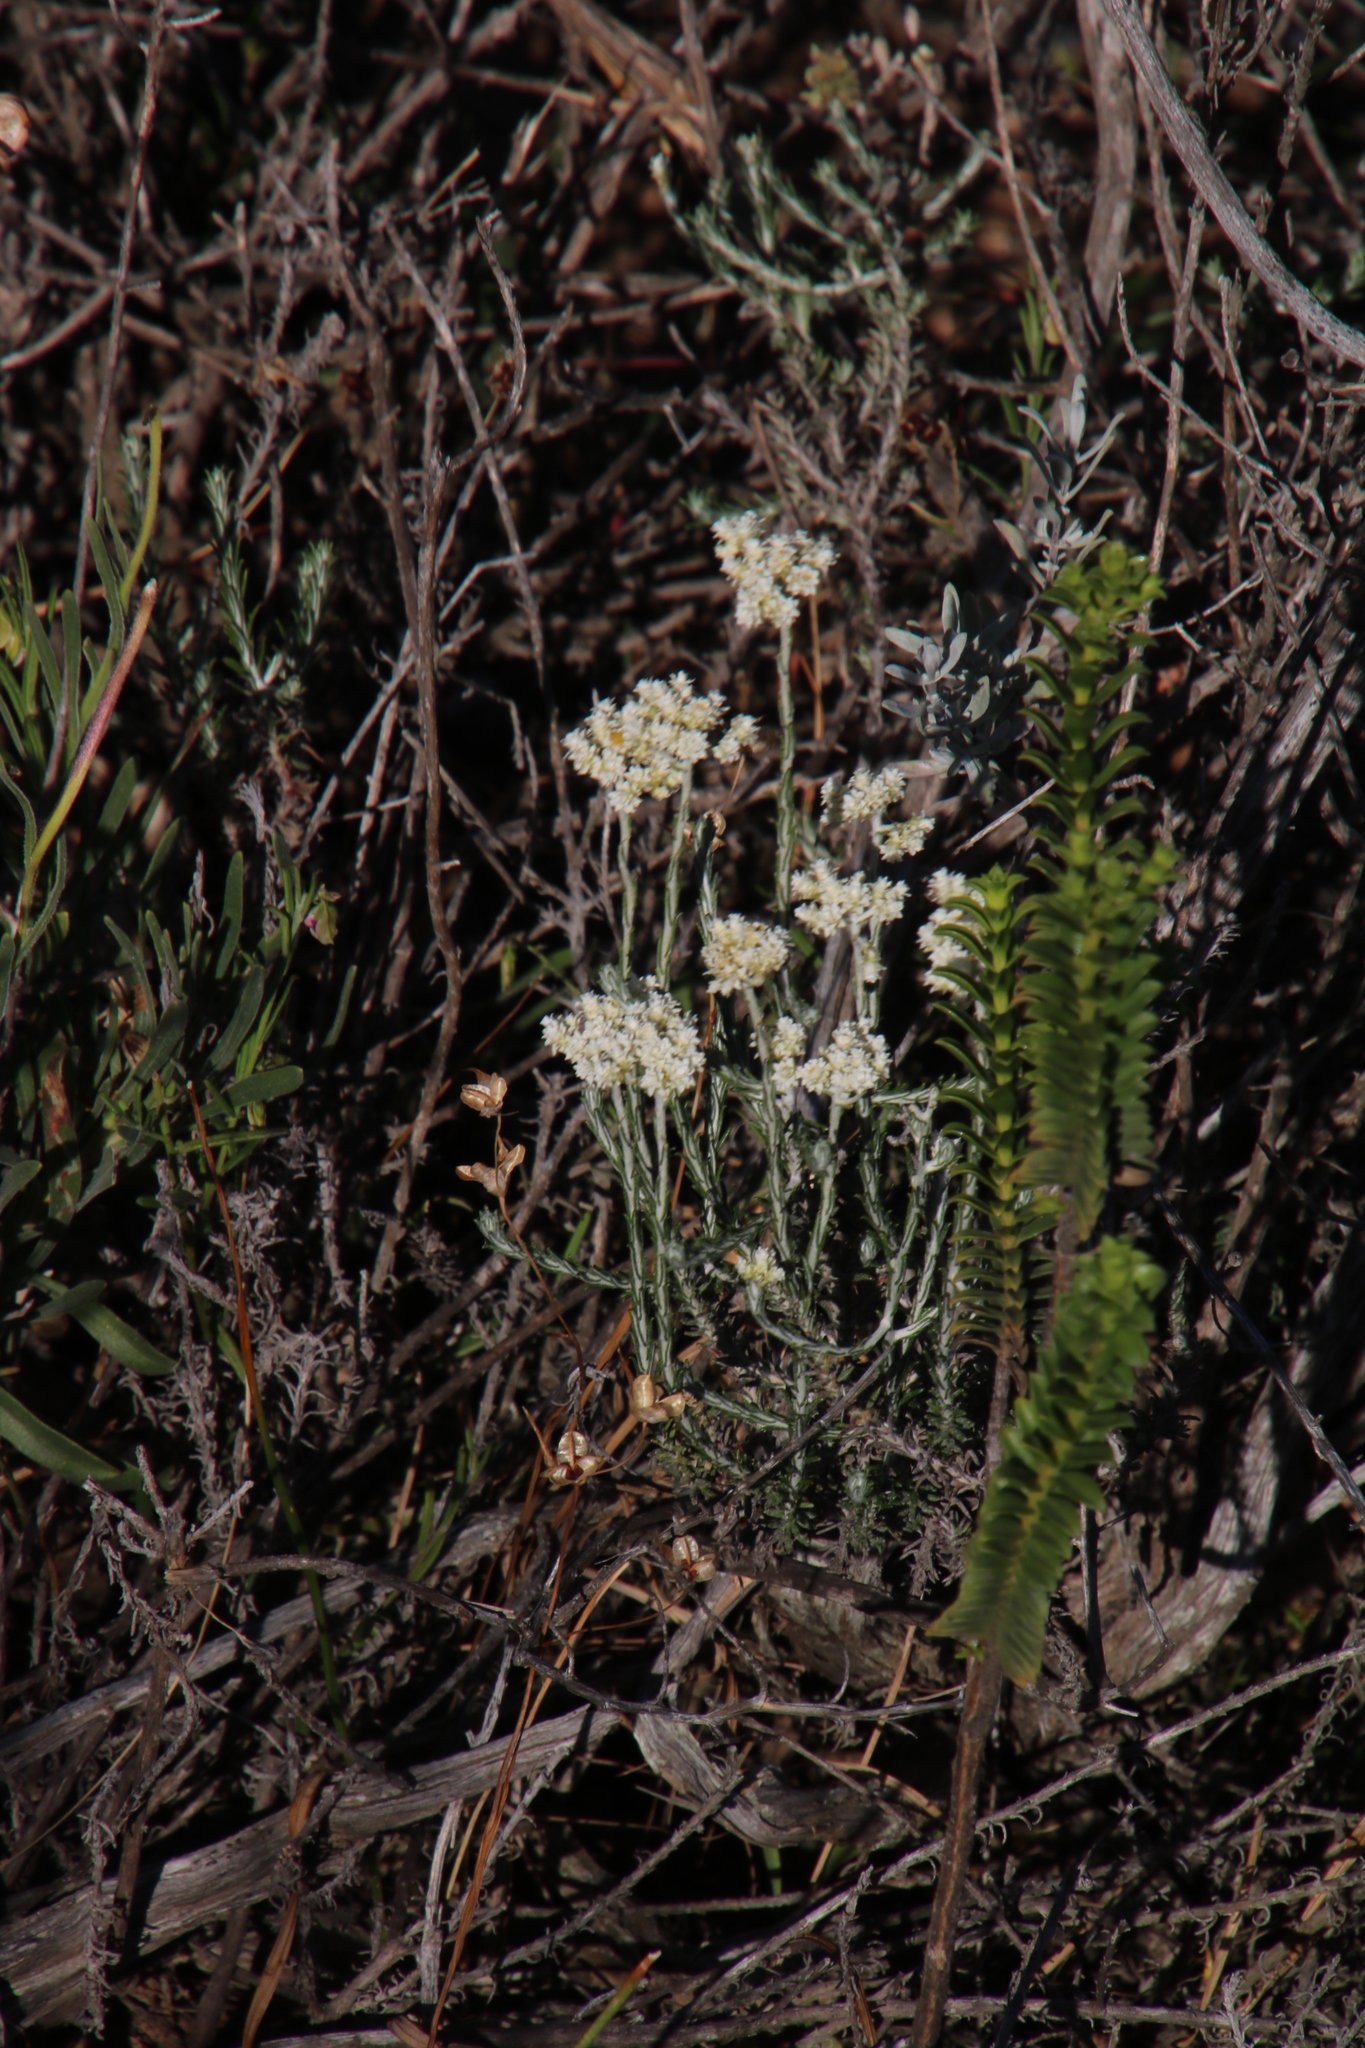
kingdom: Plantae
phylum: Tracheophyta
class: Magnoliopsida
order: Asterales
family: Asteraceae
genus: Helichrysum
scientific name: Helichrysum teretifolium
